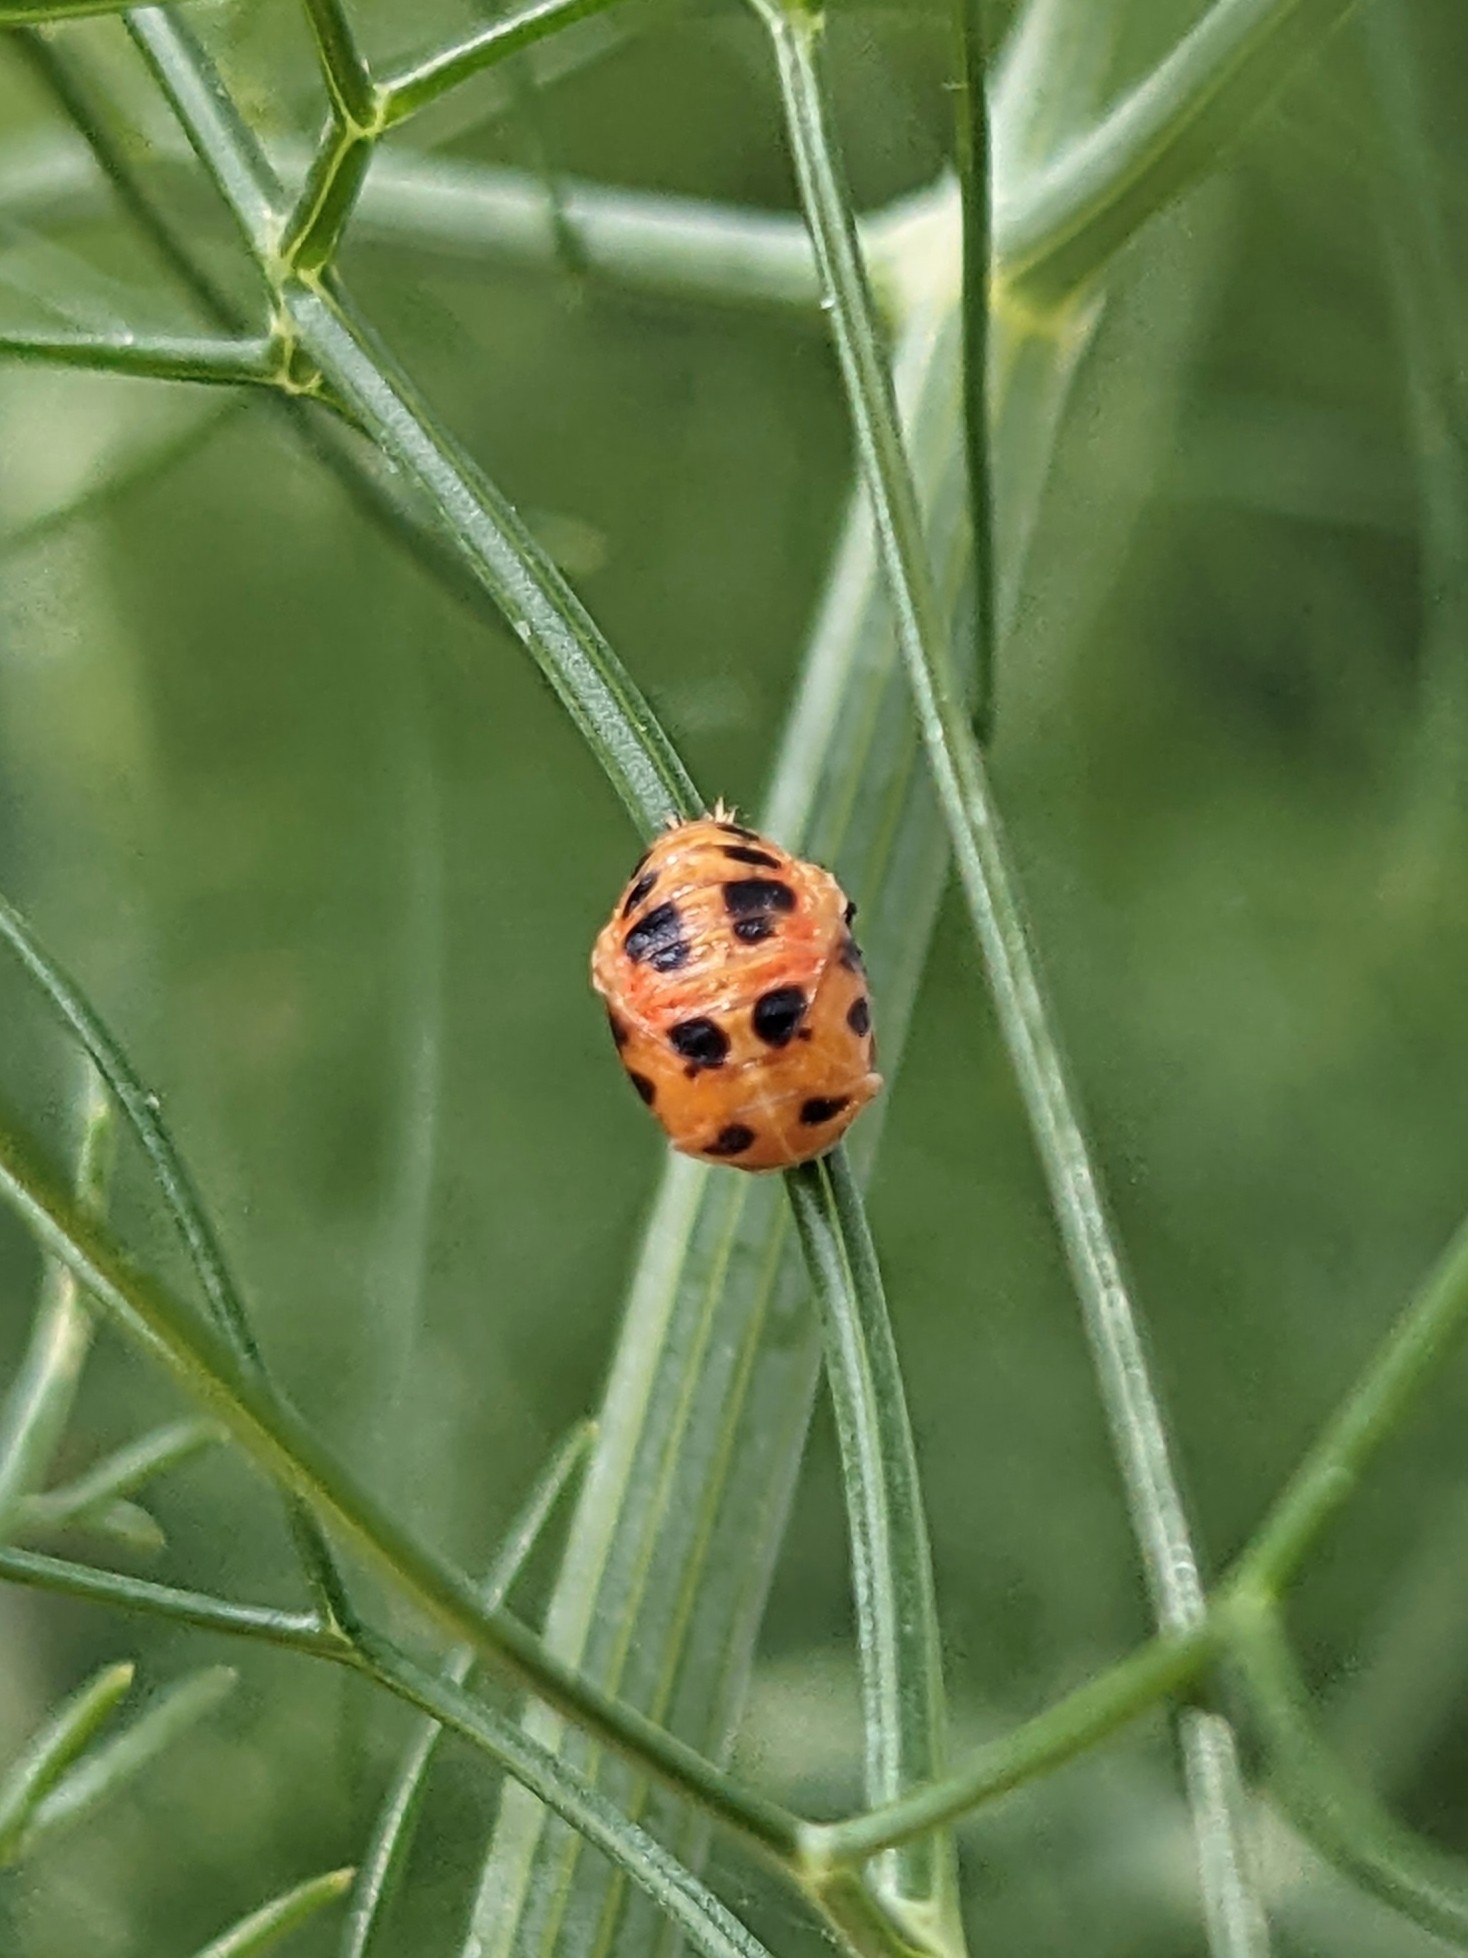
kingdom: Animalia
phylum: Arthropoda
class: Insecta
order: Coleoptera
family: Coccinellidae
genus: Harmonia
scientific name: Harmonia axyridis
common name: Harlequin ladybird
